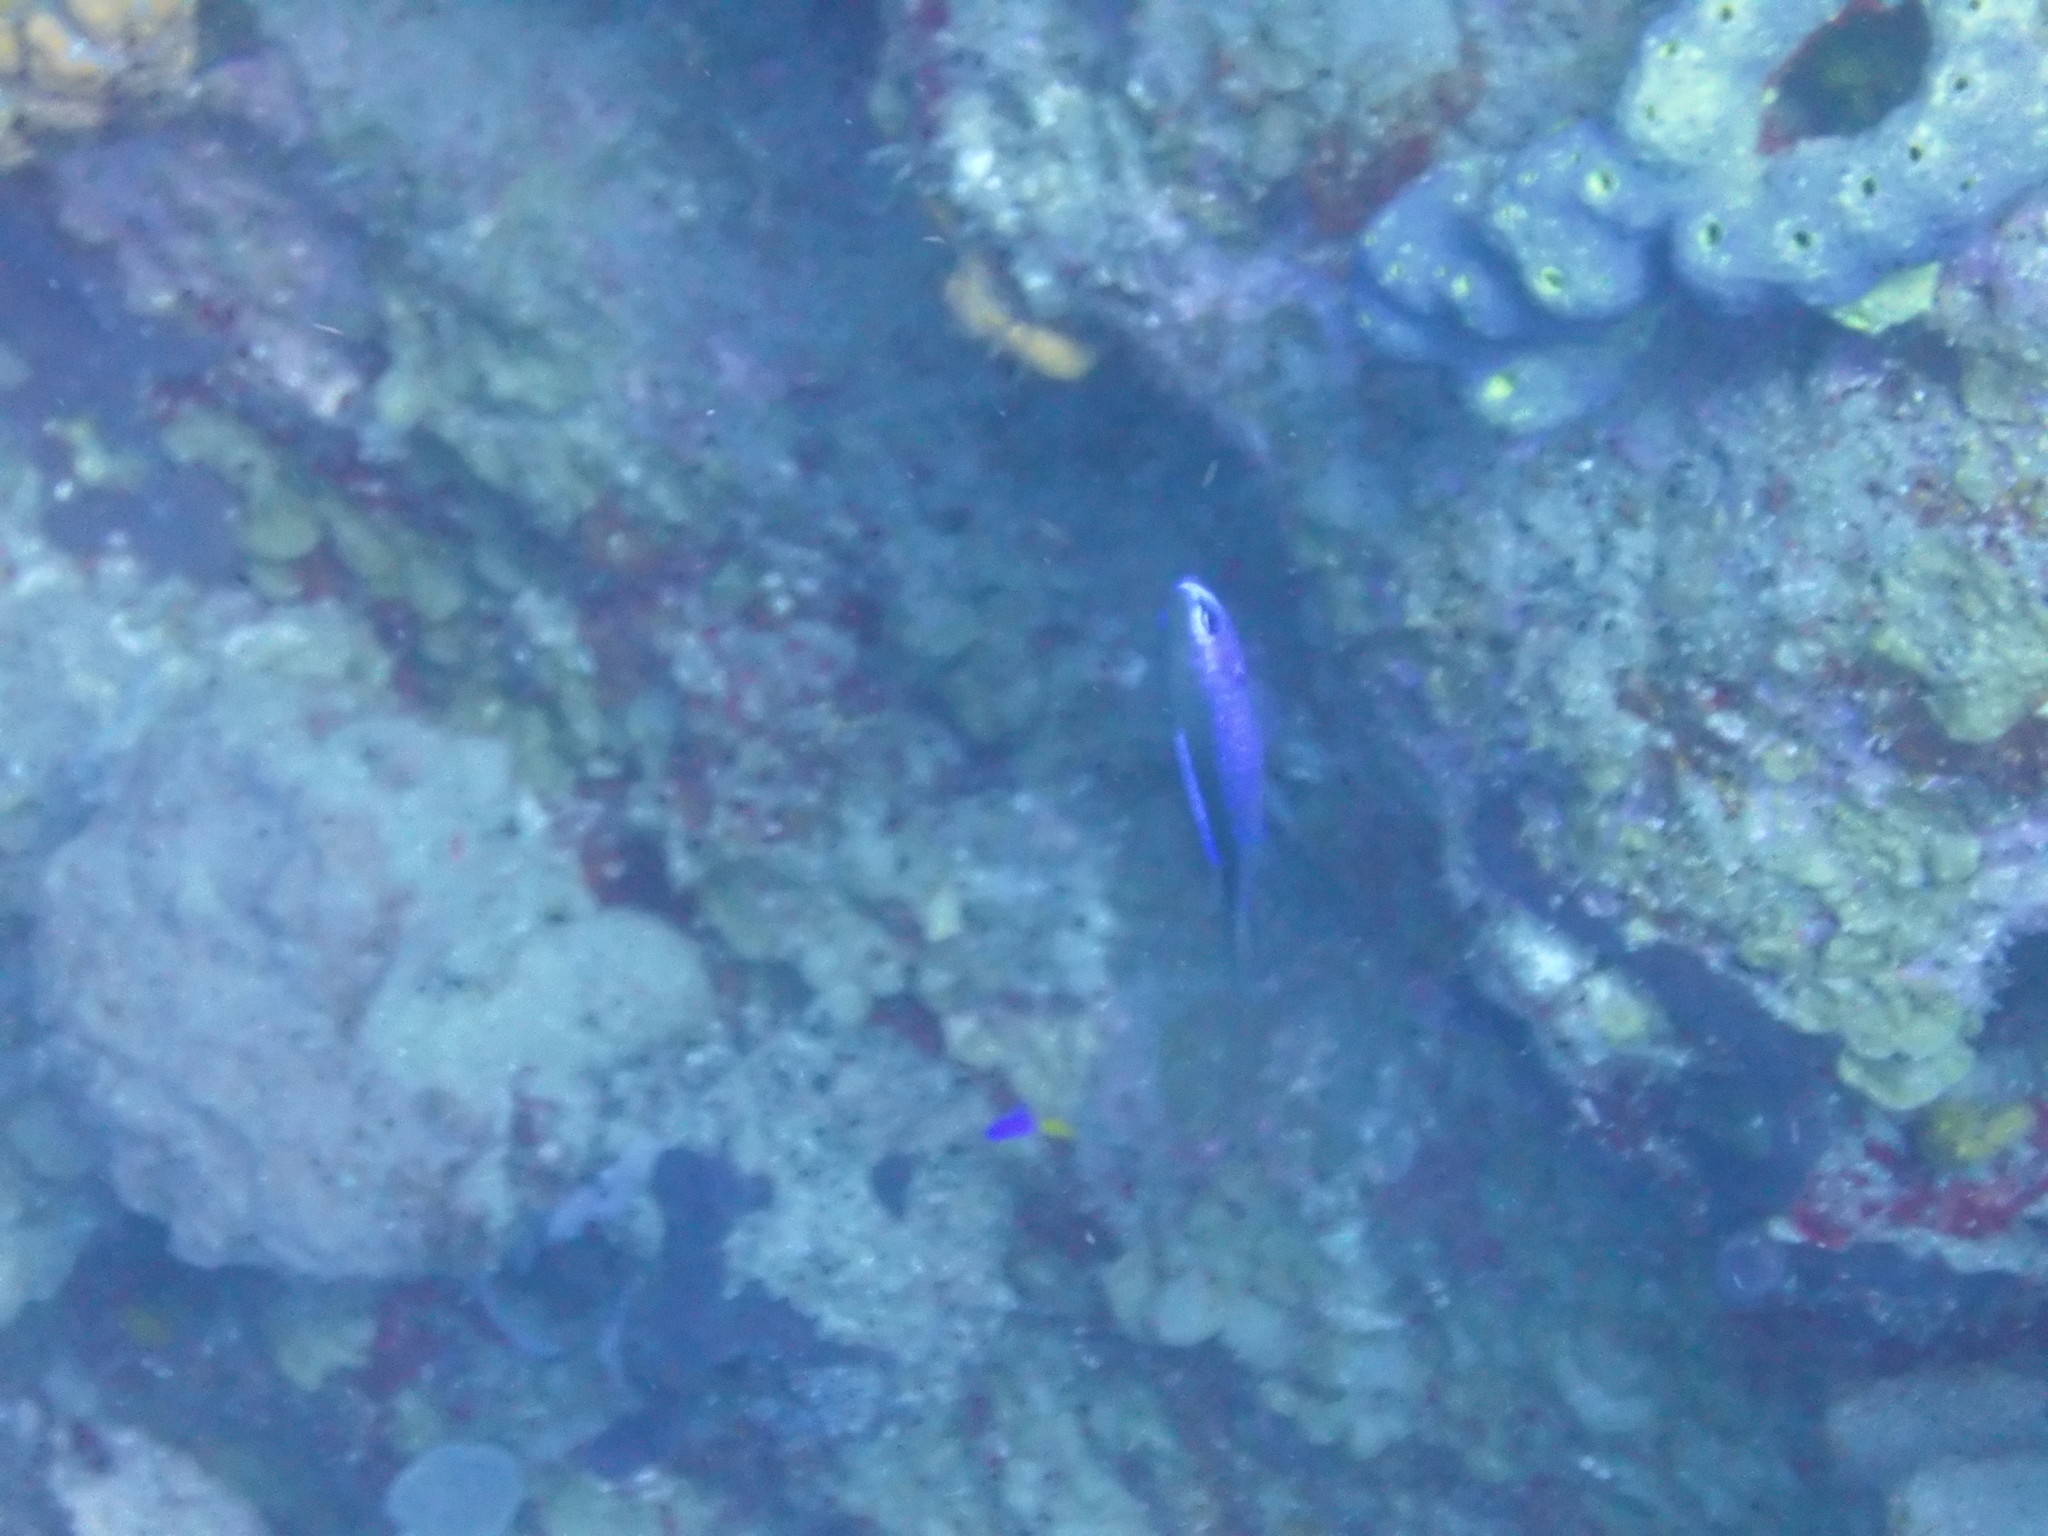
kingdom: Animalia
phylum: Chordata
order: Perciformes
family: Pomacentridae
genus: Chromis
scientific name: Chromis cyanea
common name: Blue chromis
